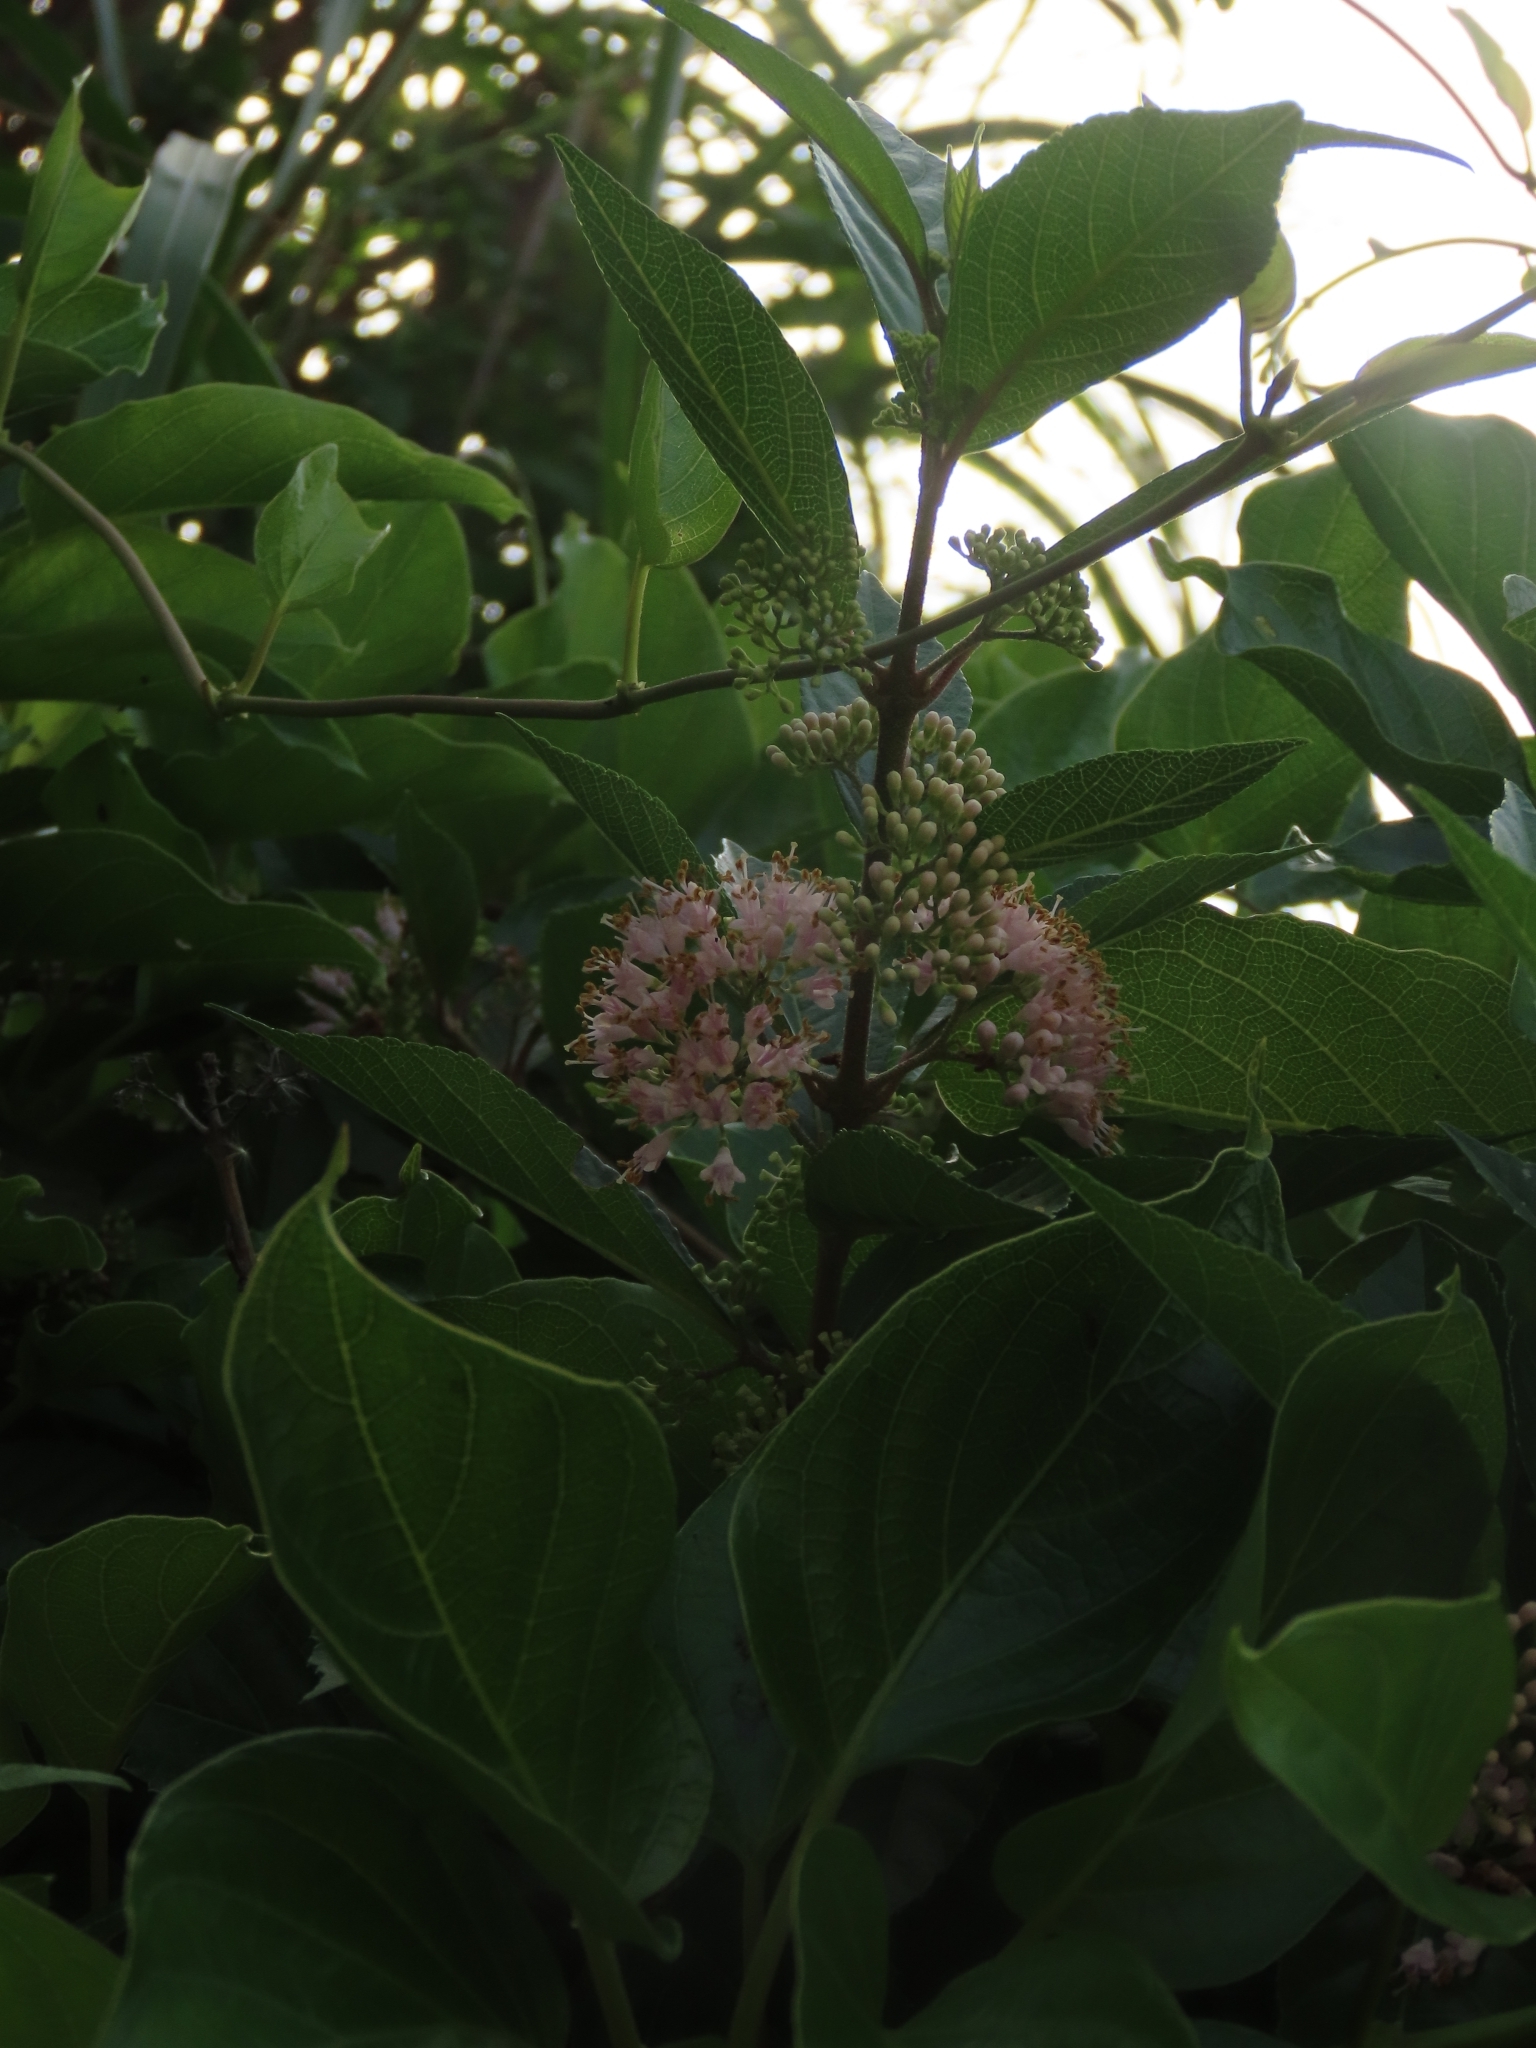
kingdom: Plantae
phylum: Tracheophyta
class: Magnoliopsida
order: Lamiales
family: Lamiaceae
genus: Callicarpa
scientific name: Callicarpa japonica
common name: Japanese beauty-berry
